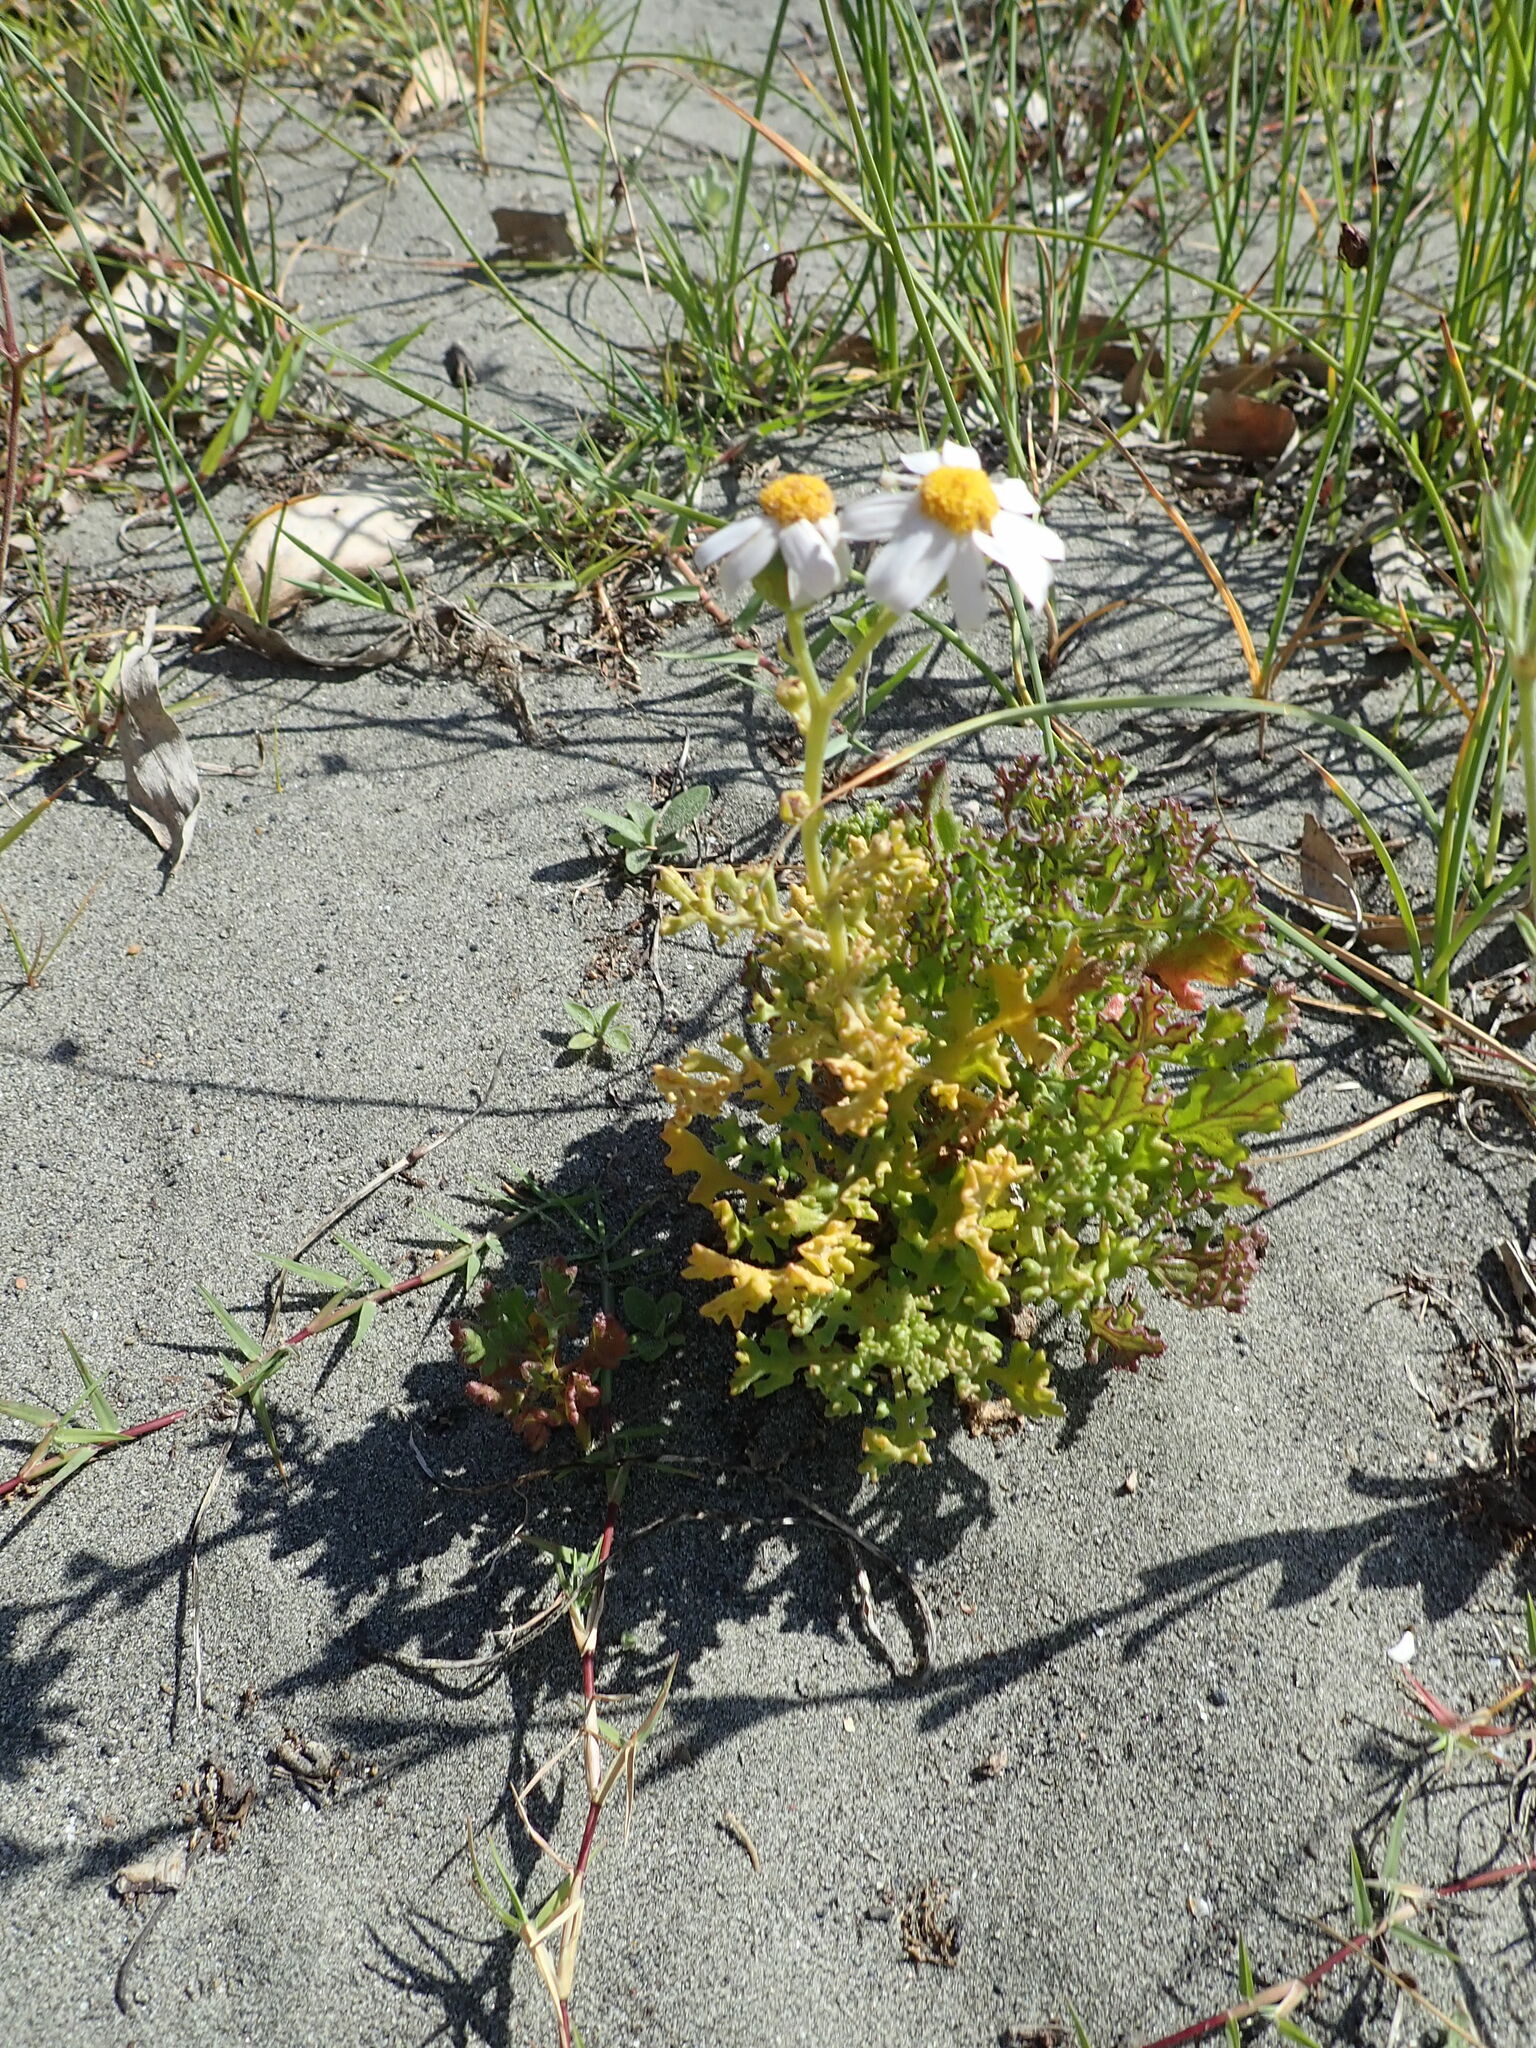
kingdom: Plantae
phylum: Tracheophyta
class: Magnoliopsida
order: Asterales
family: Asteraceae
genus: Senecio
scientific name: Senecio elegans
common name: Purple groundsel
